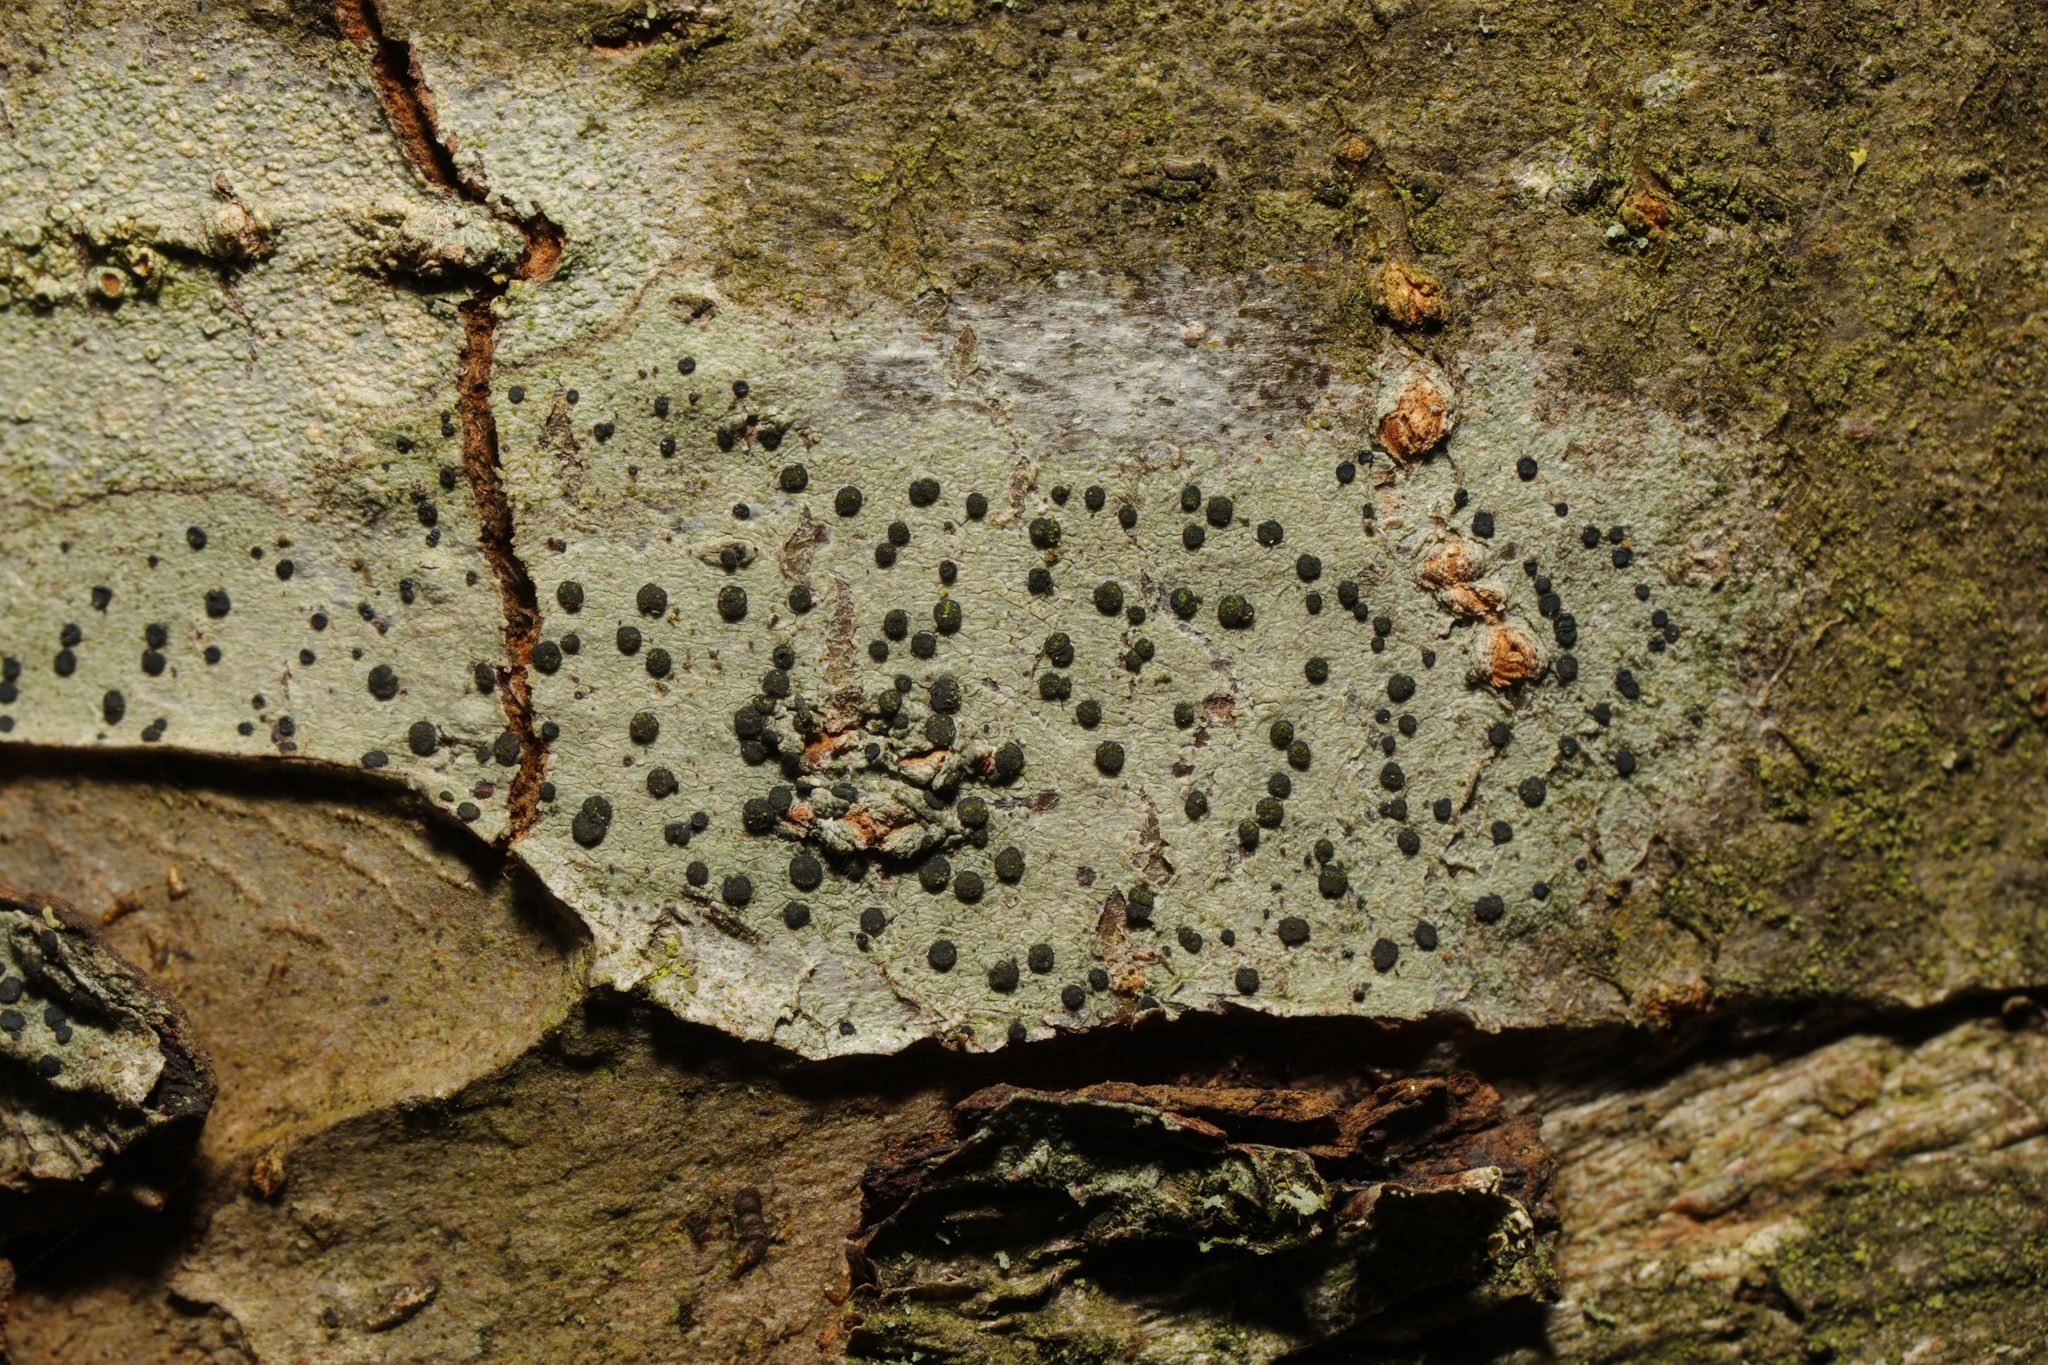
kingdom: Fungi
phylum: Ascomycota
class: Lecanoromycetes
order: Lecanorales
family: Lecanoraceae
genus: Lecidella
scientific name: Lecidella elaeochroma
